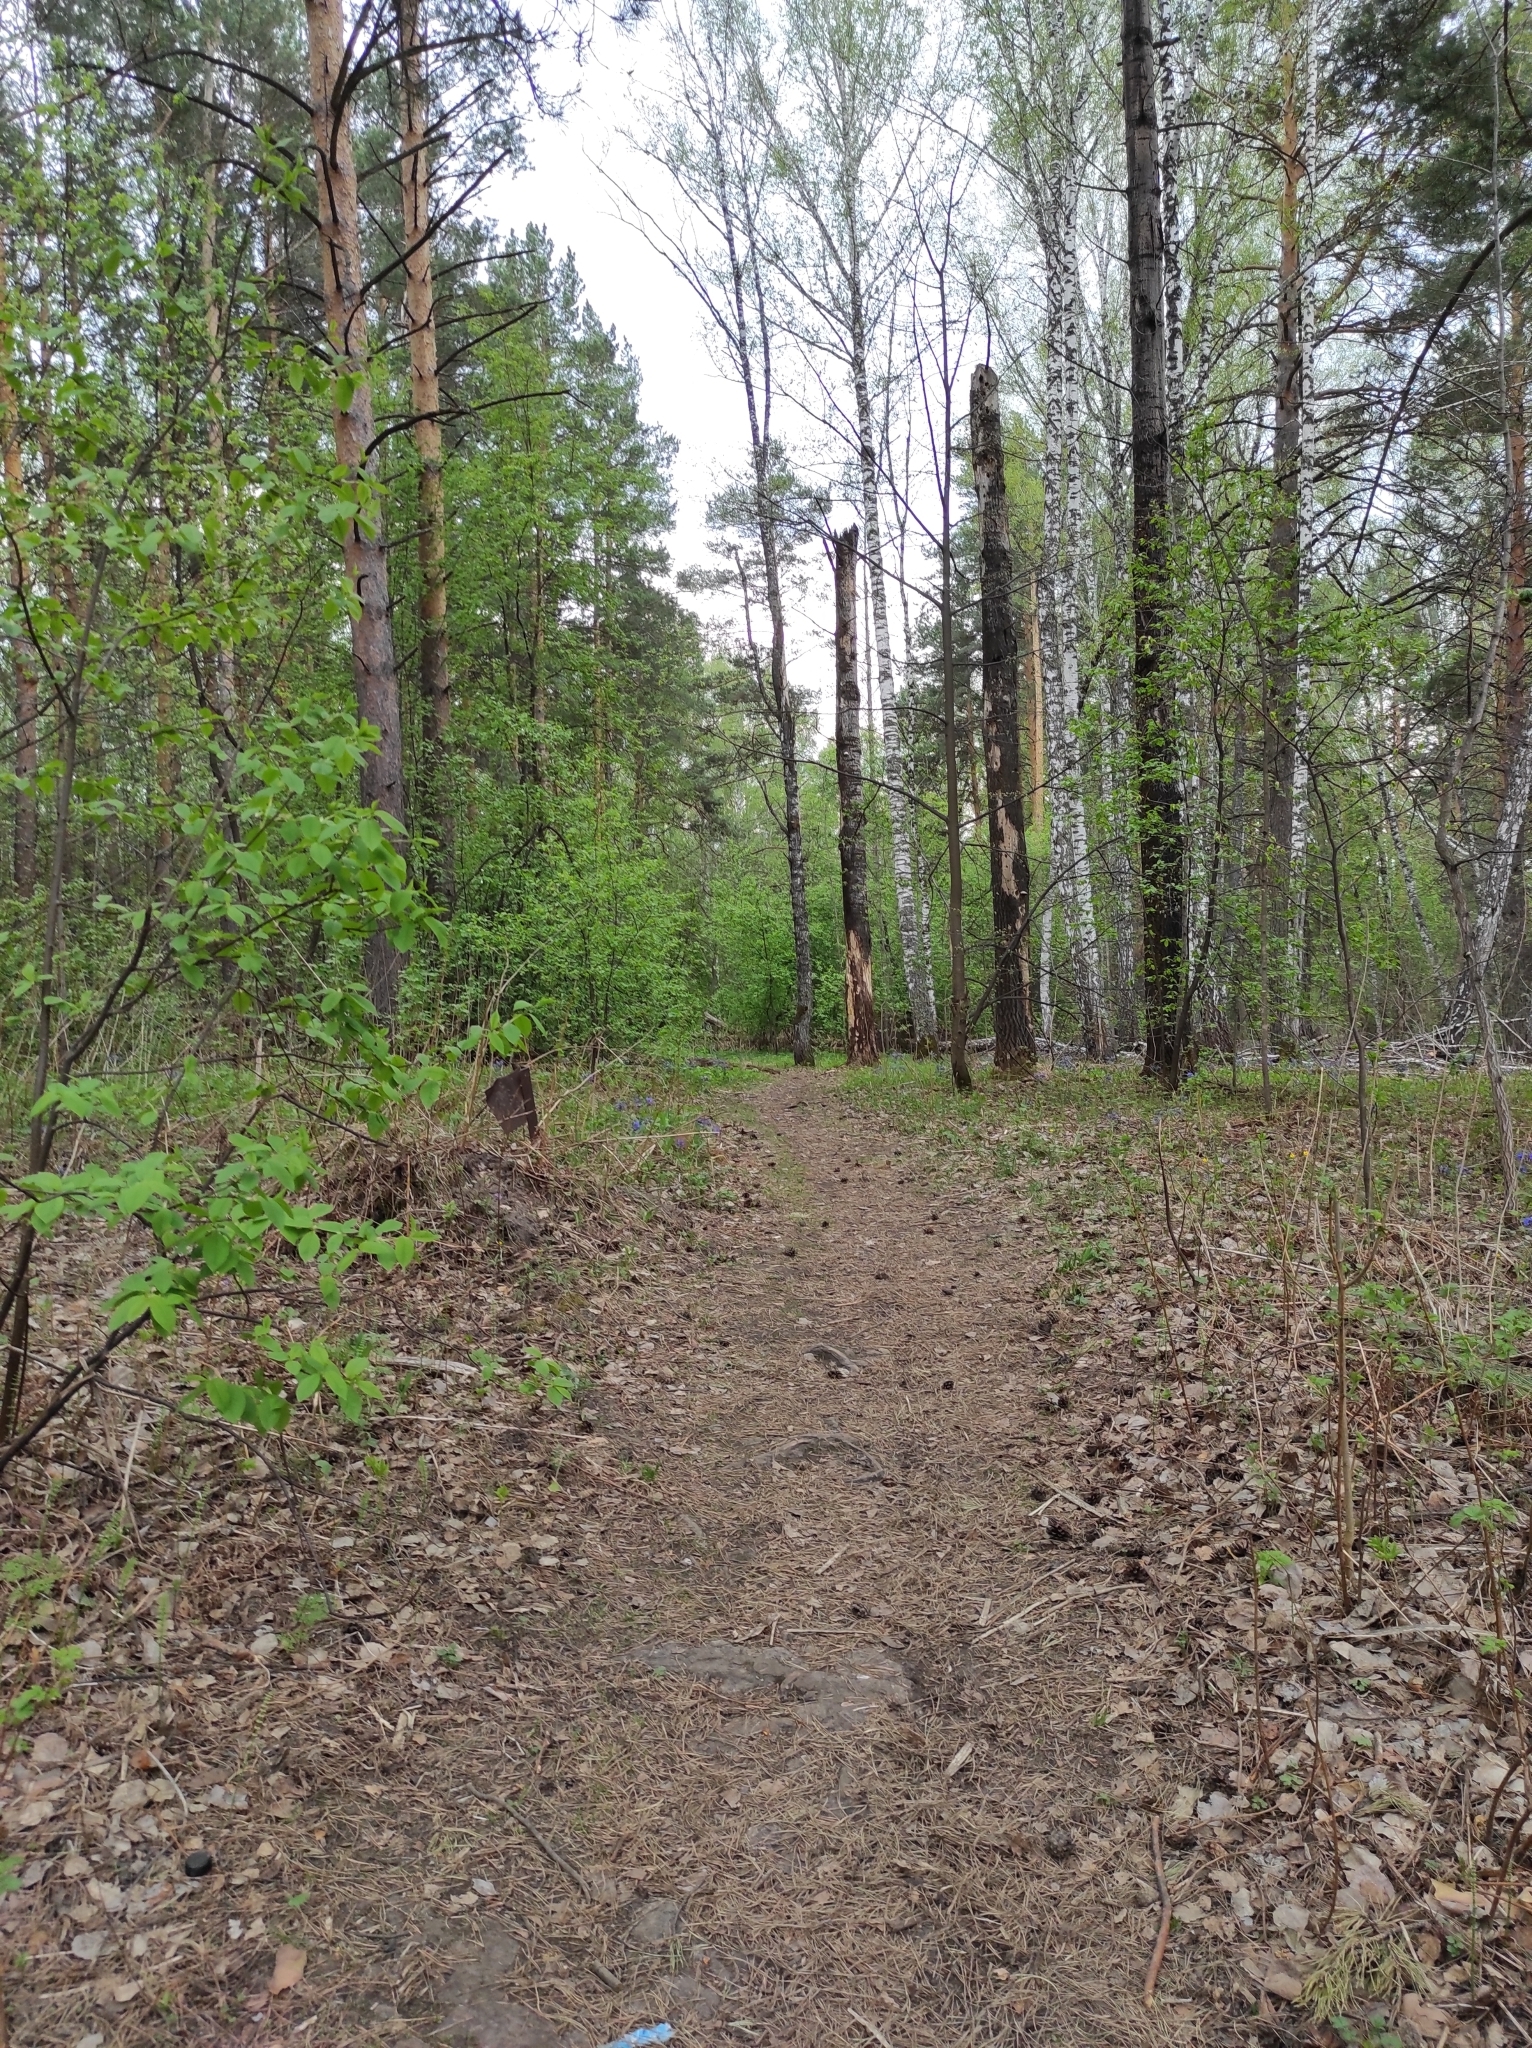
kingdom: Plantae
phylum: Tracheophyta
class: Pinopsida
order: Pinales
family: Pinaceae
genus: Pinus
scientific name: Pinus sylvestris
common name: Scots pine
